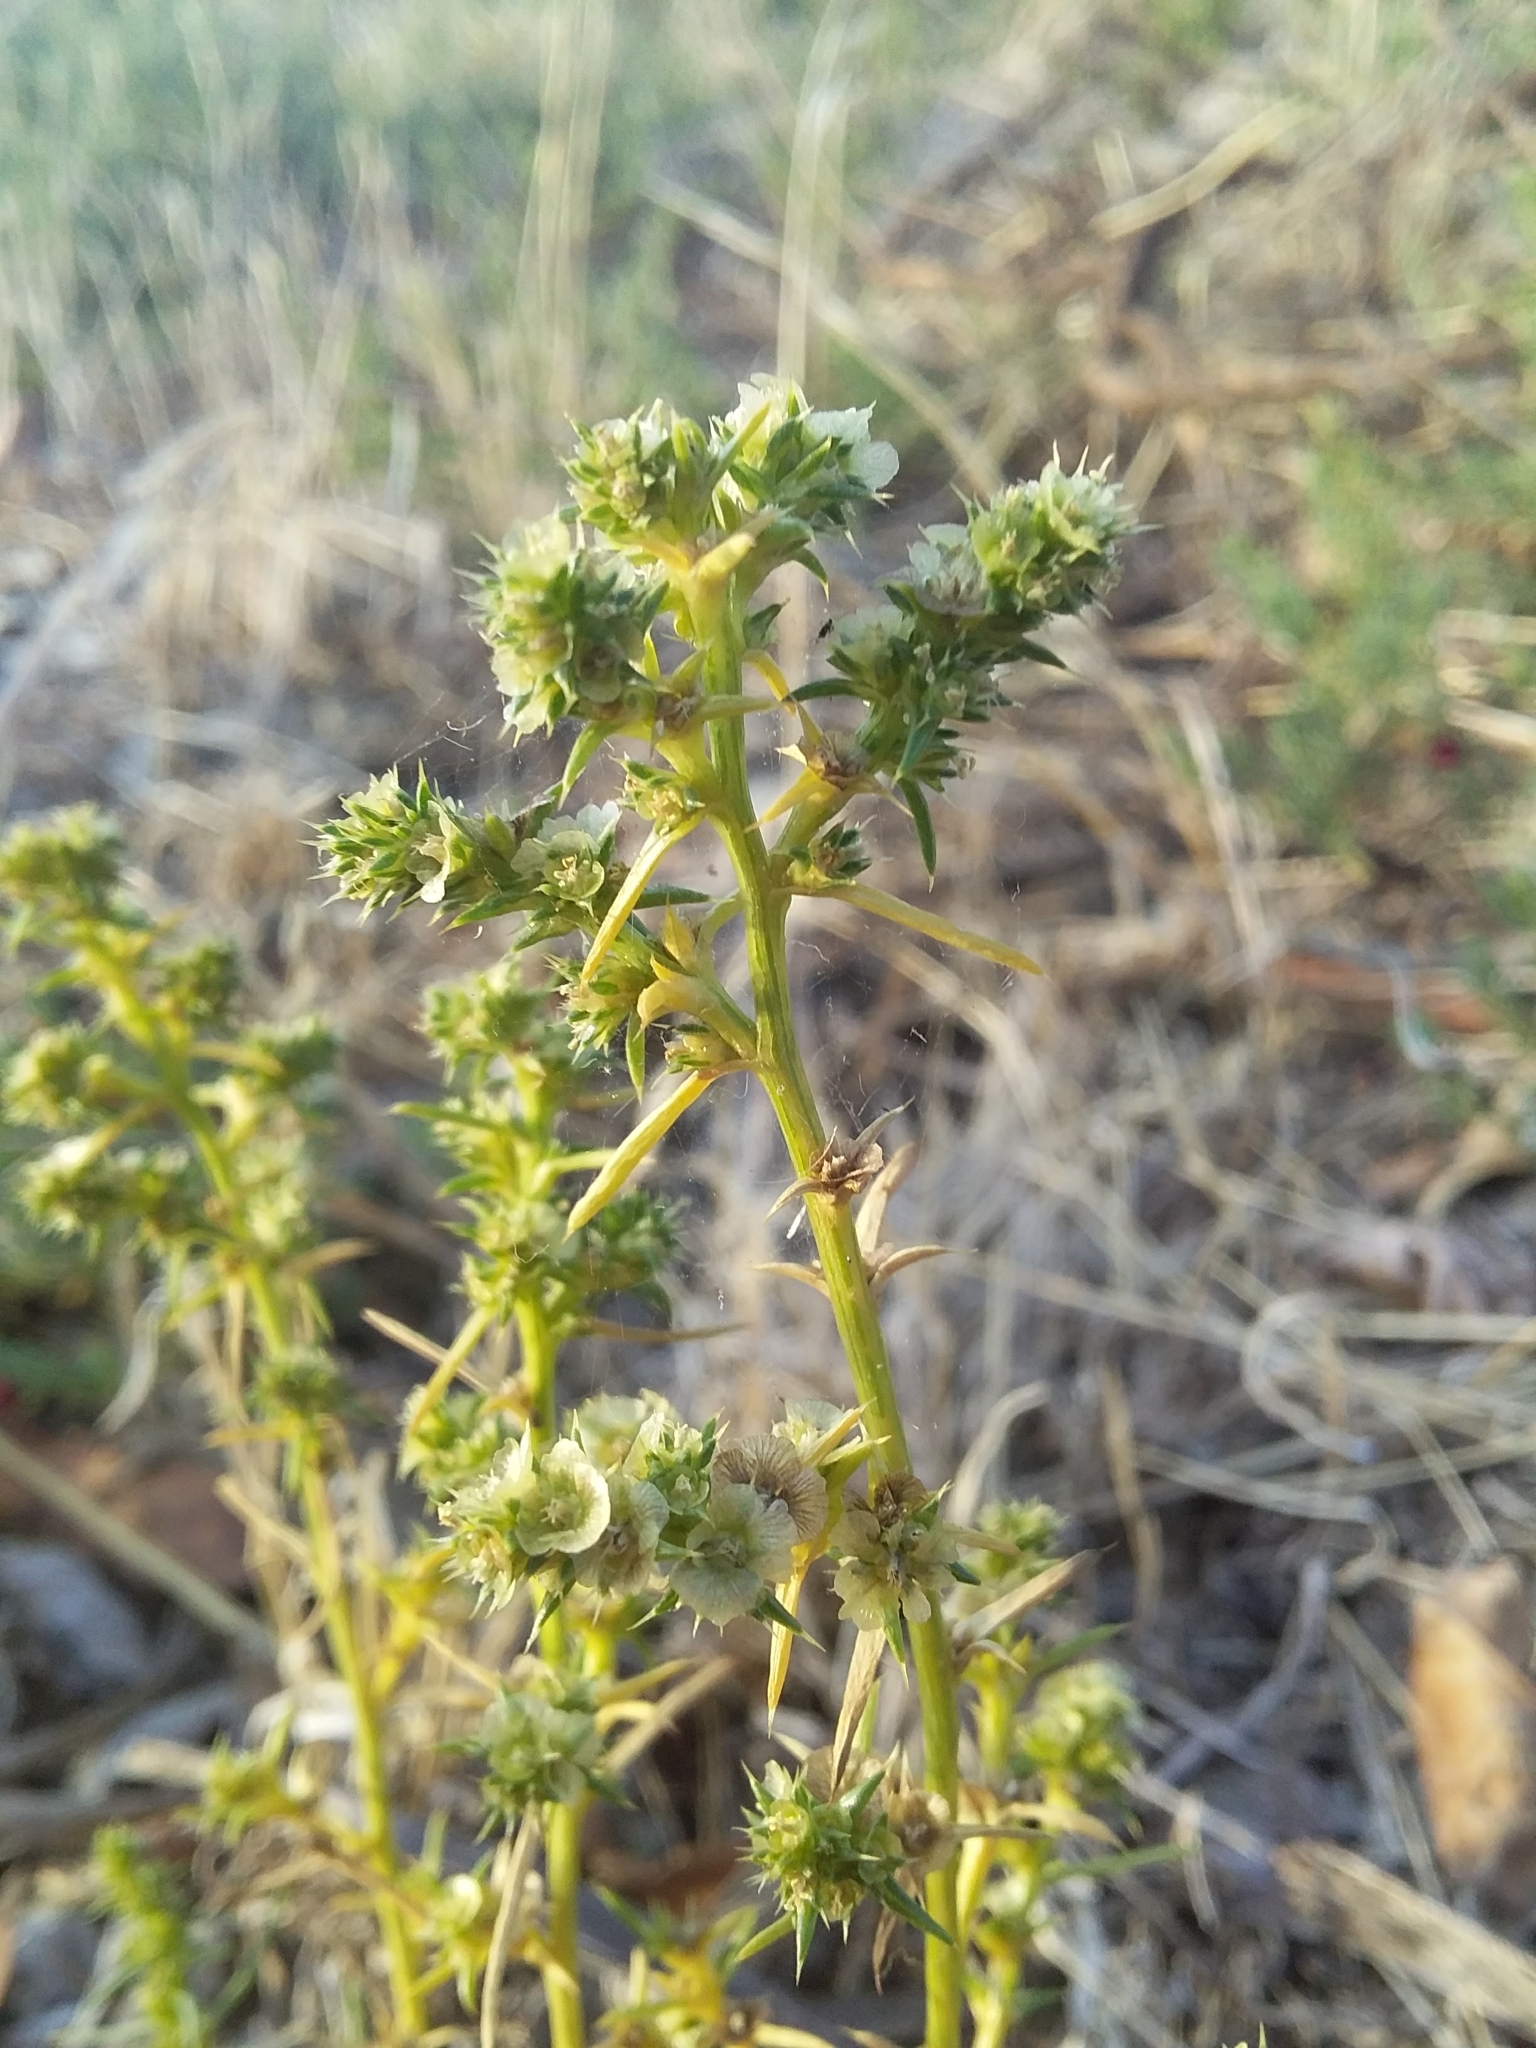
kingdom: Plantae
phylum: Tracheophyta
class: Magnoliopsida
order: Caryophyllales
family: Amaranthaceae
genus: Salsola
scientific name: Salsola australis
